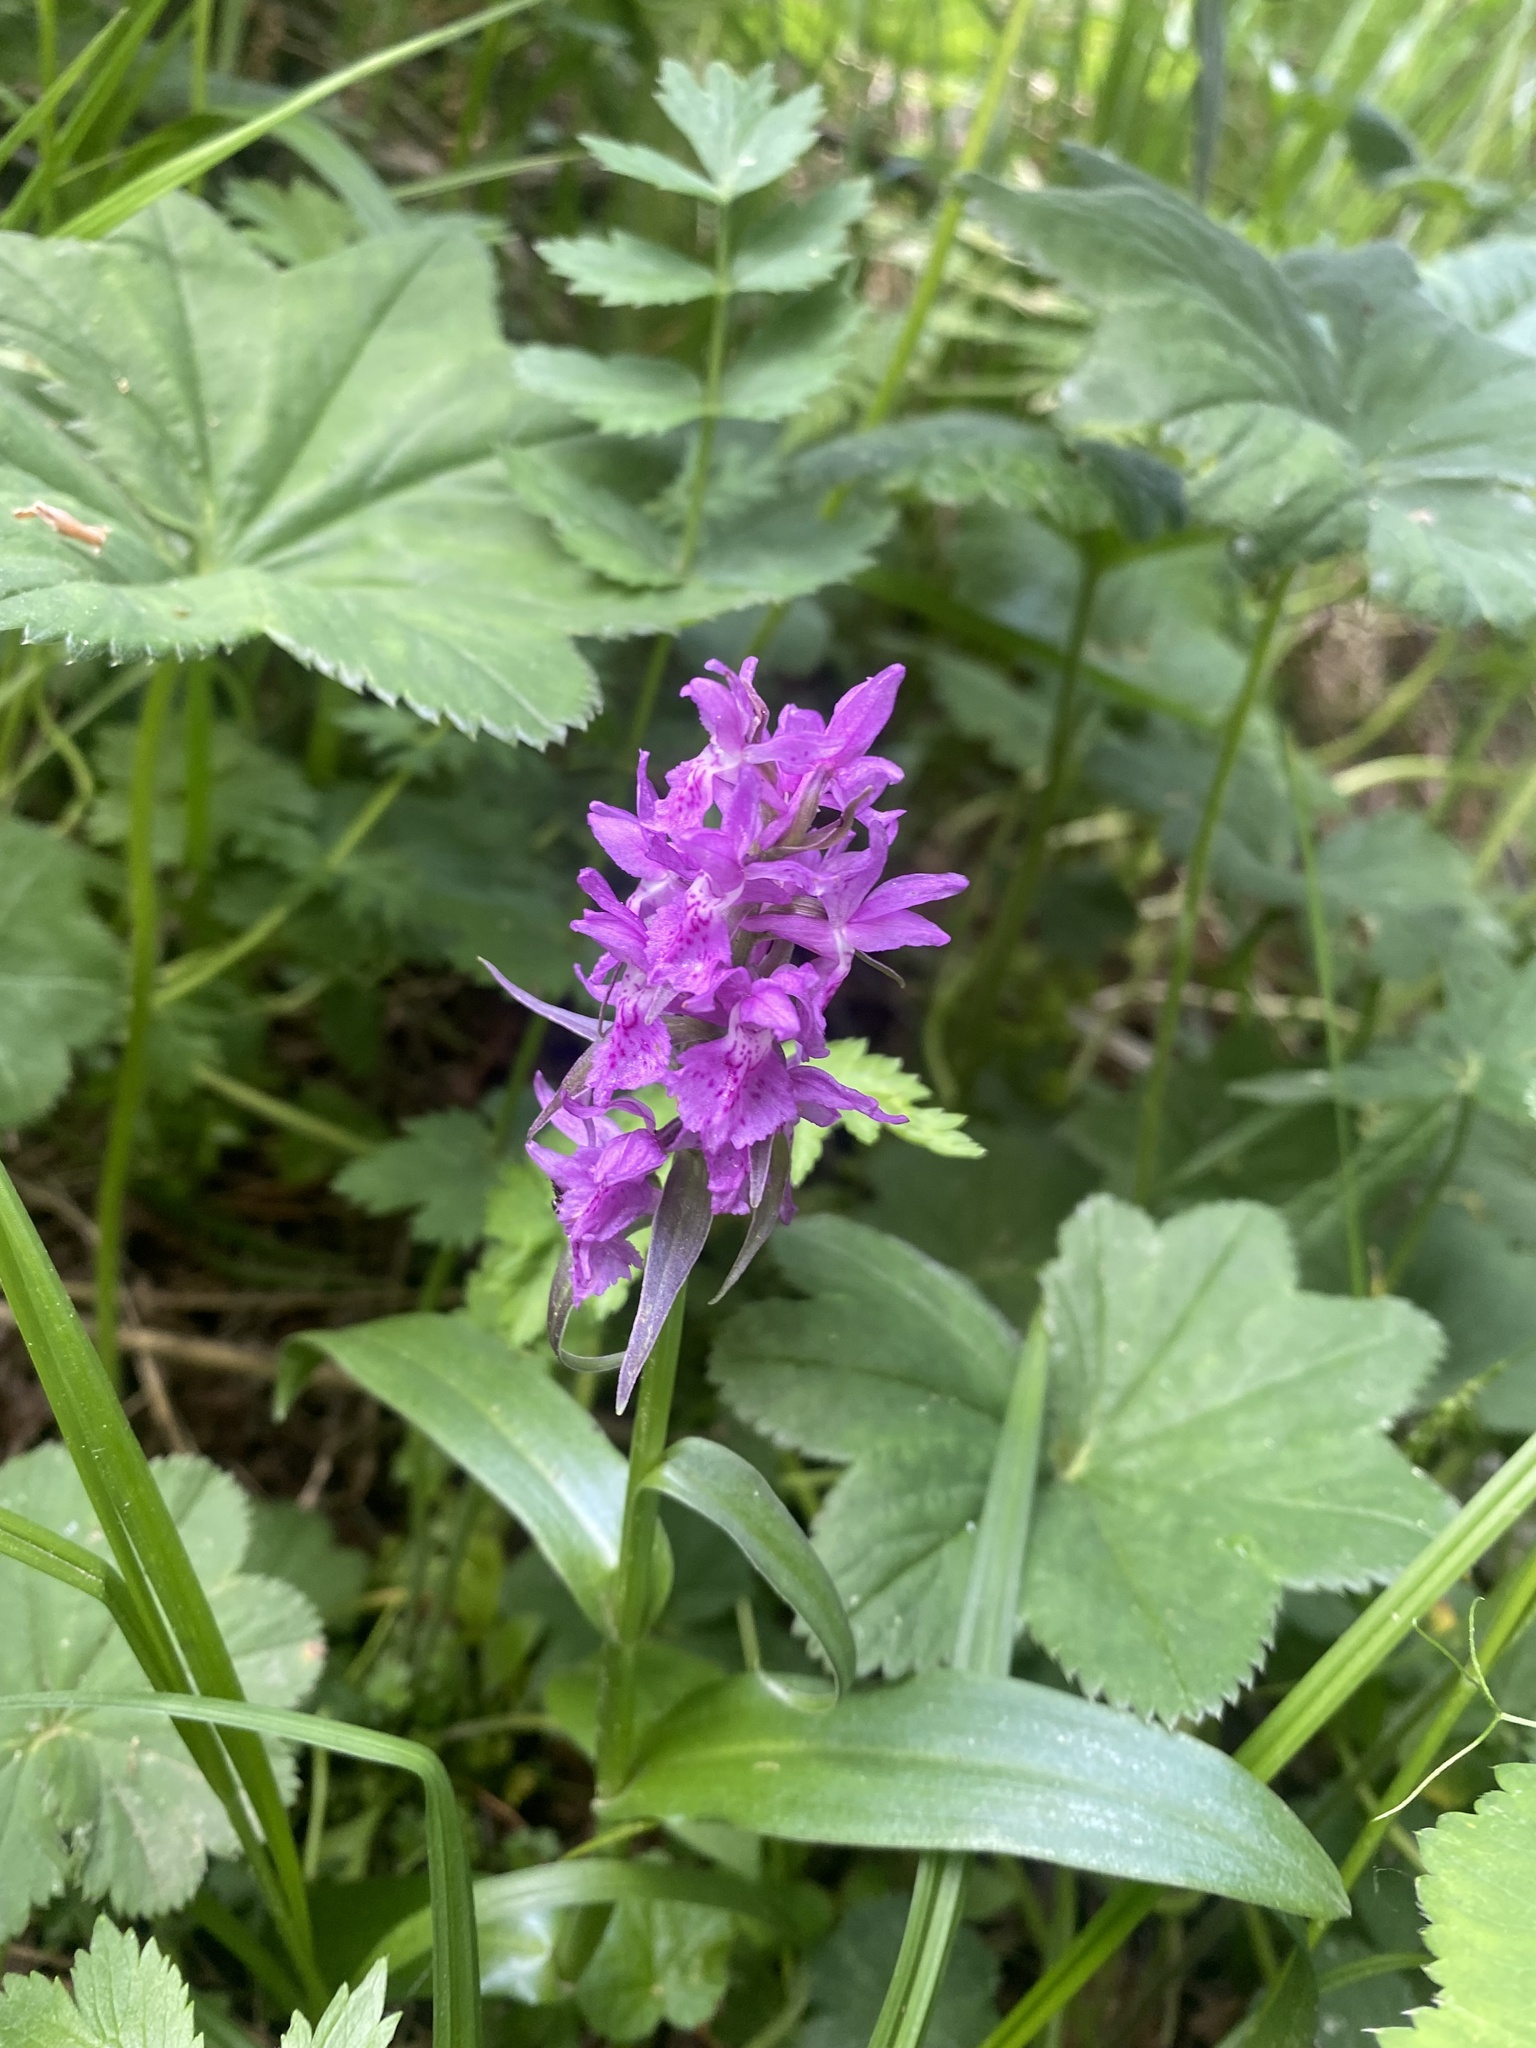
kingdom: Plantae
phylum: Tracheophyta
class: Liliopsida
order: Asparagales
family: Orchidaceae
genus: Dactylorhiza
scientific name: Dactylorhiza euxina
